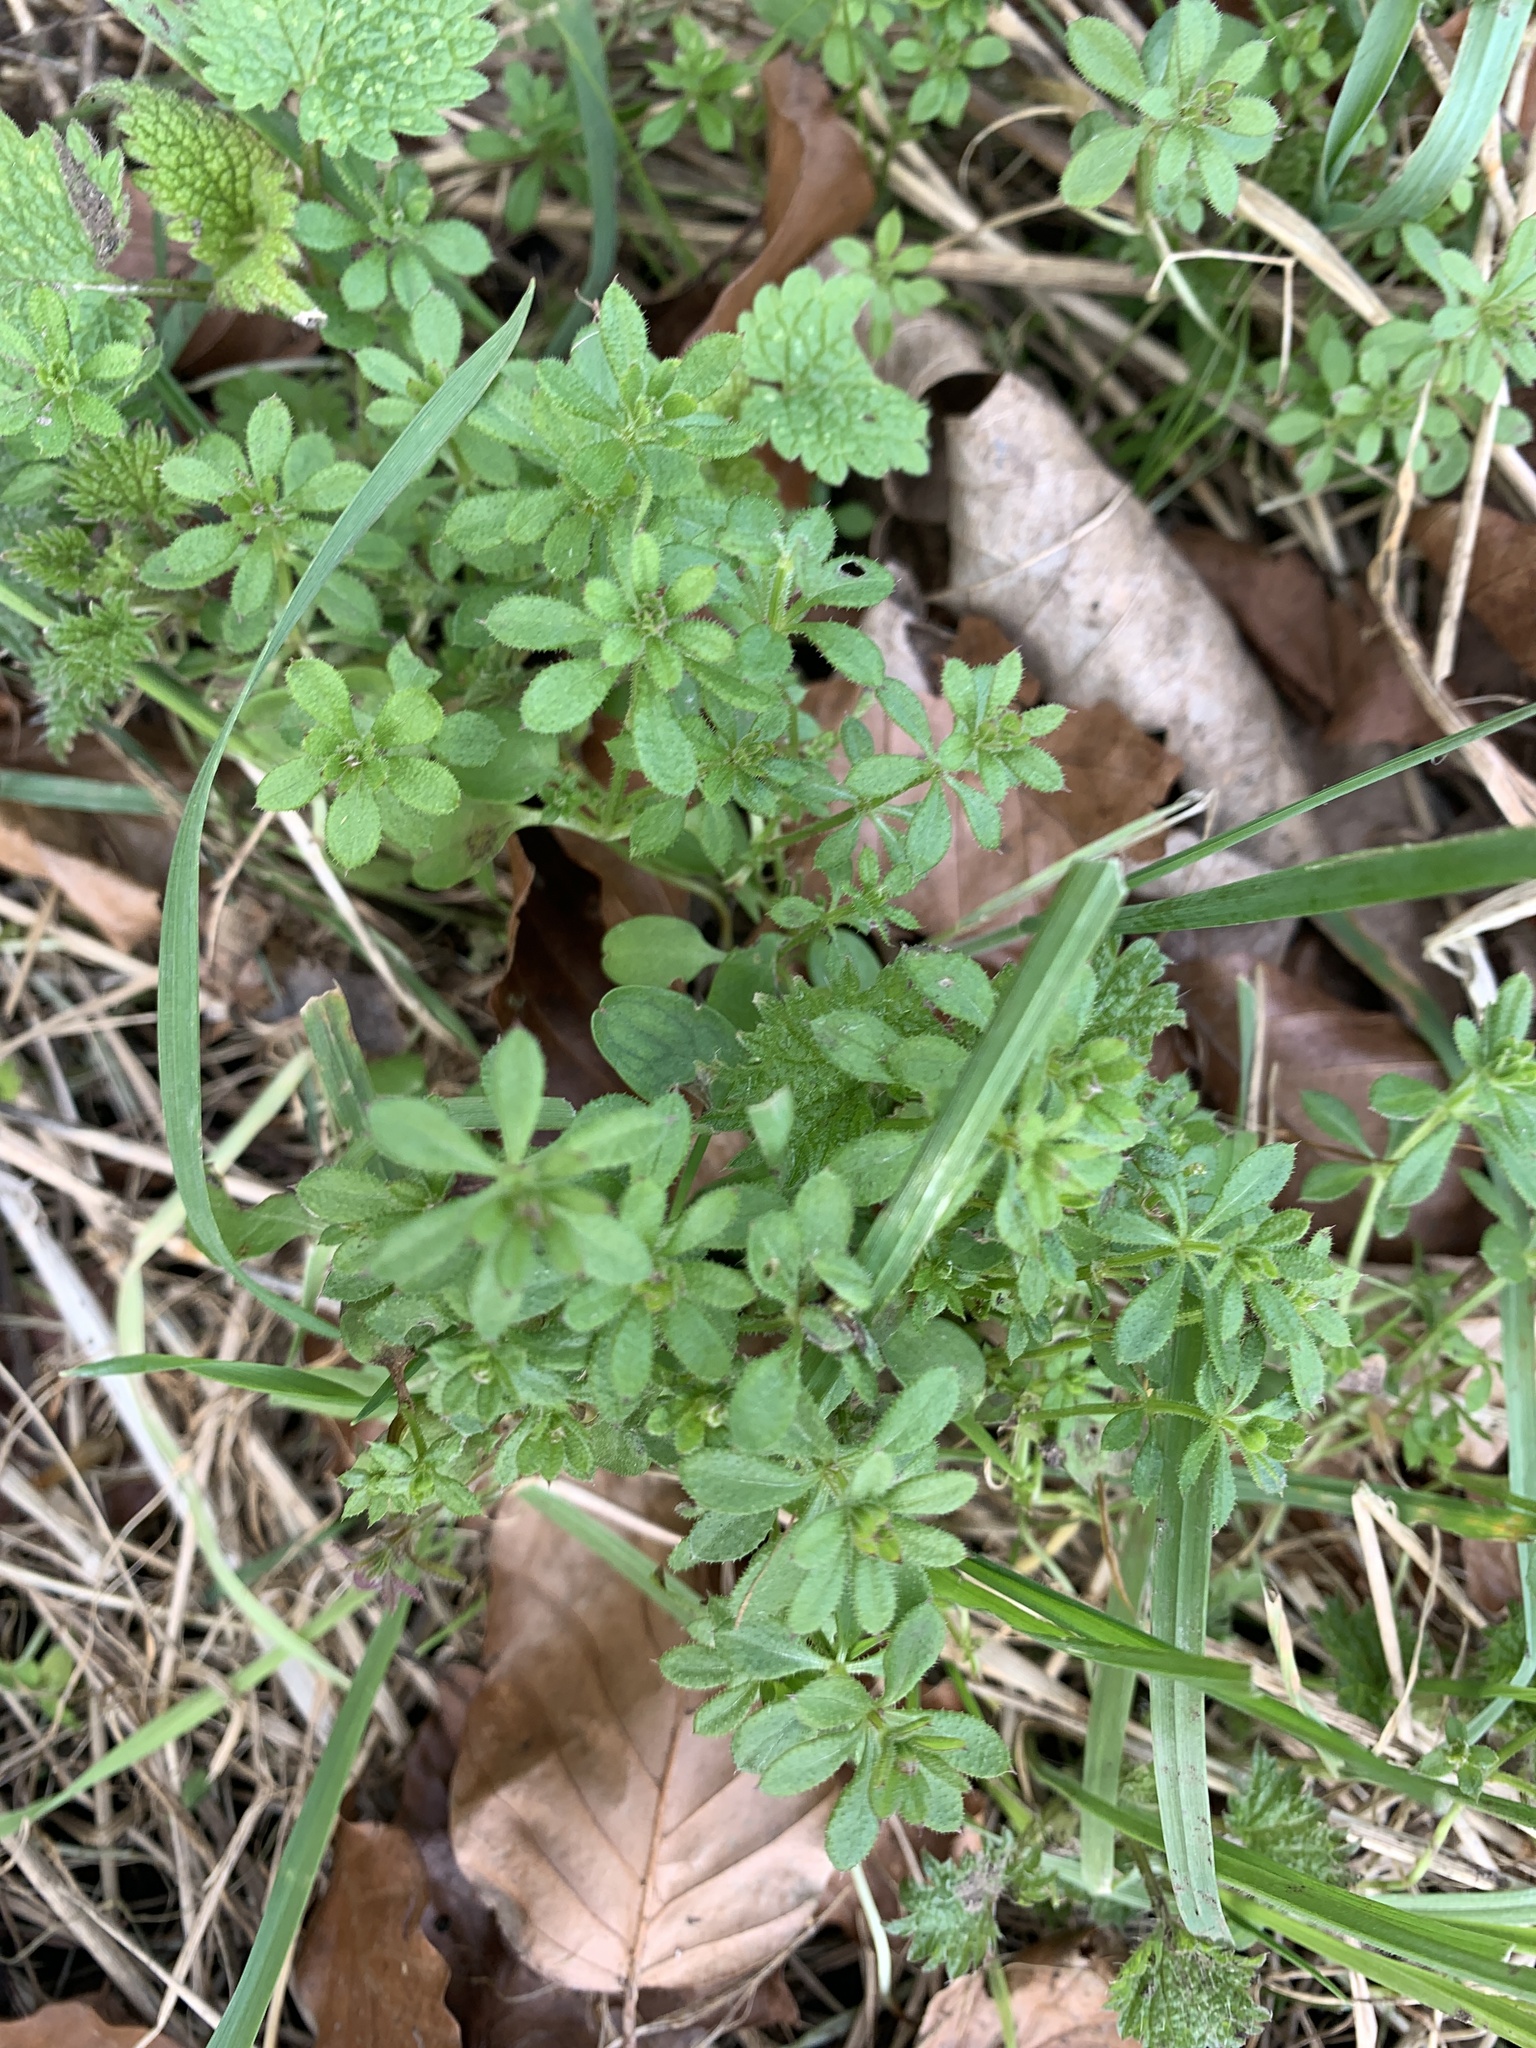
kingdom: Plantae
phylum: Tracheophyta
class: Magnoliopsida
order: Gentianales
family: Rubiaceae
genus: Galium
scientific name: Galium aparine
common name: Cleavers
